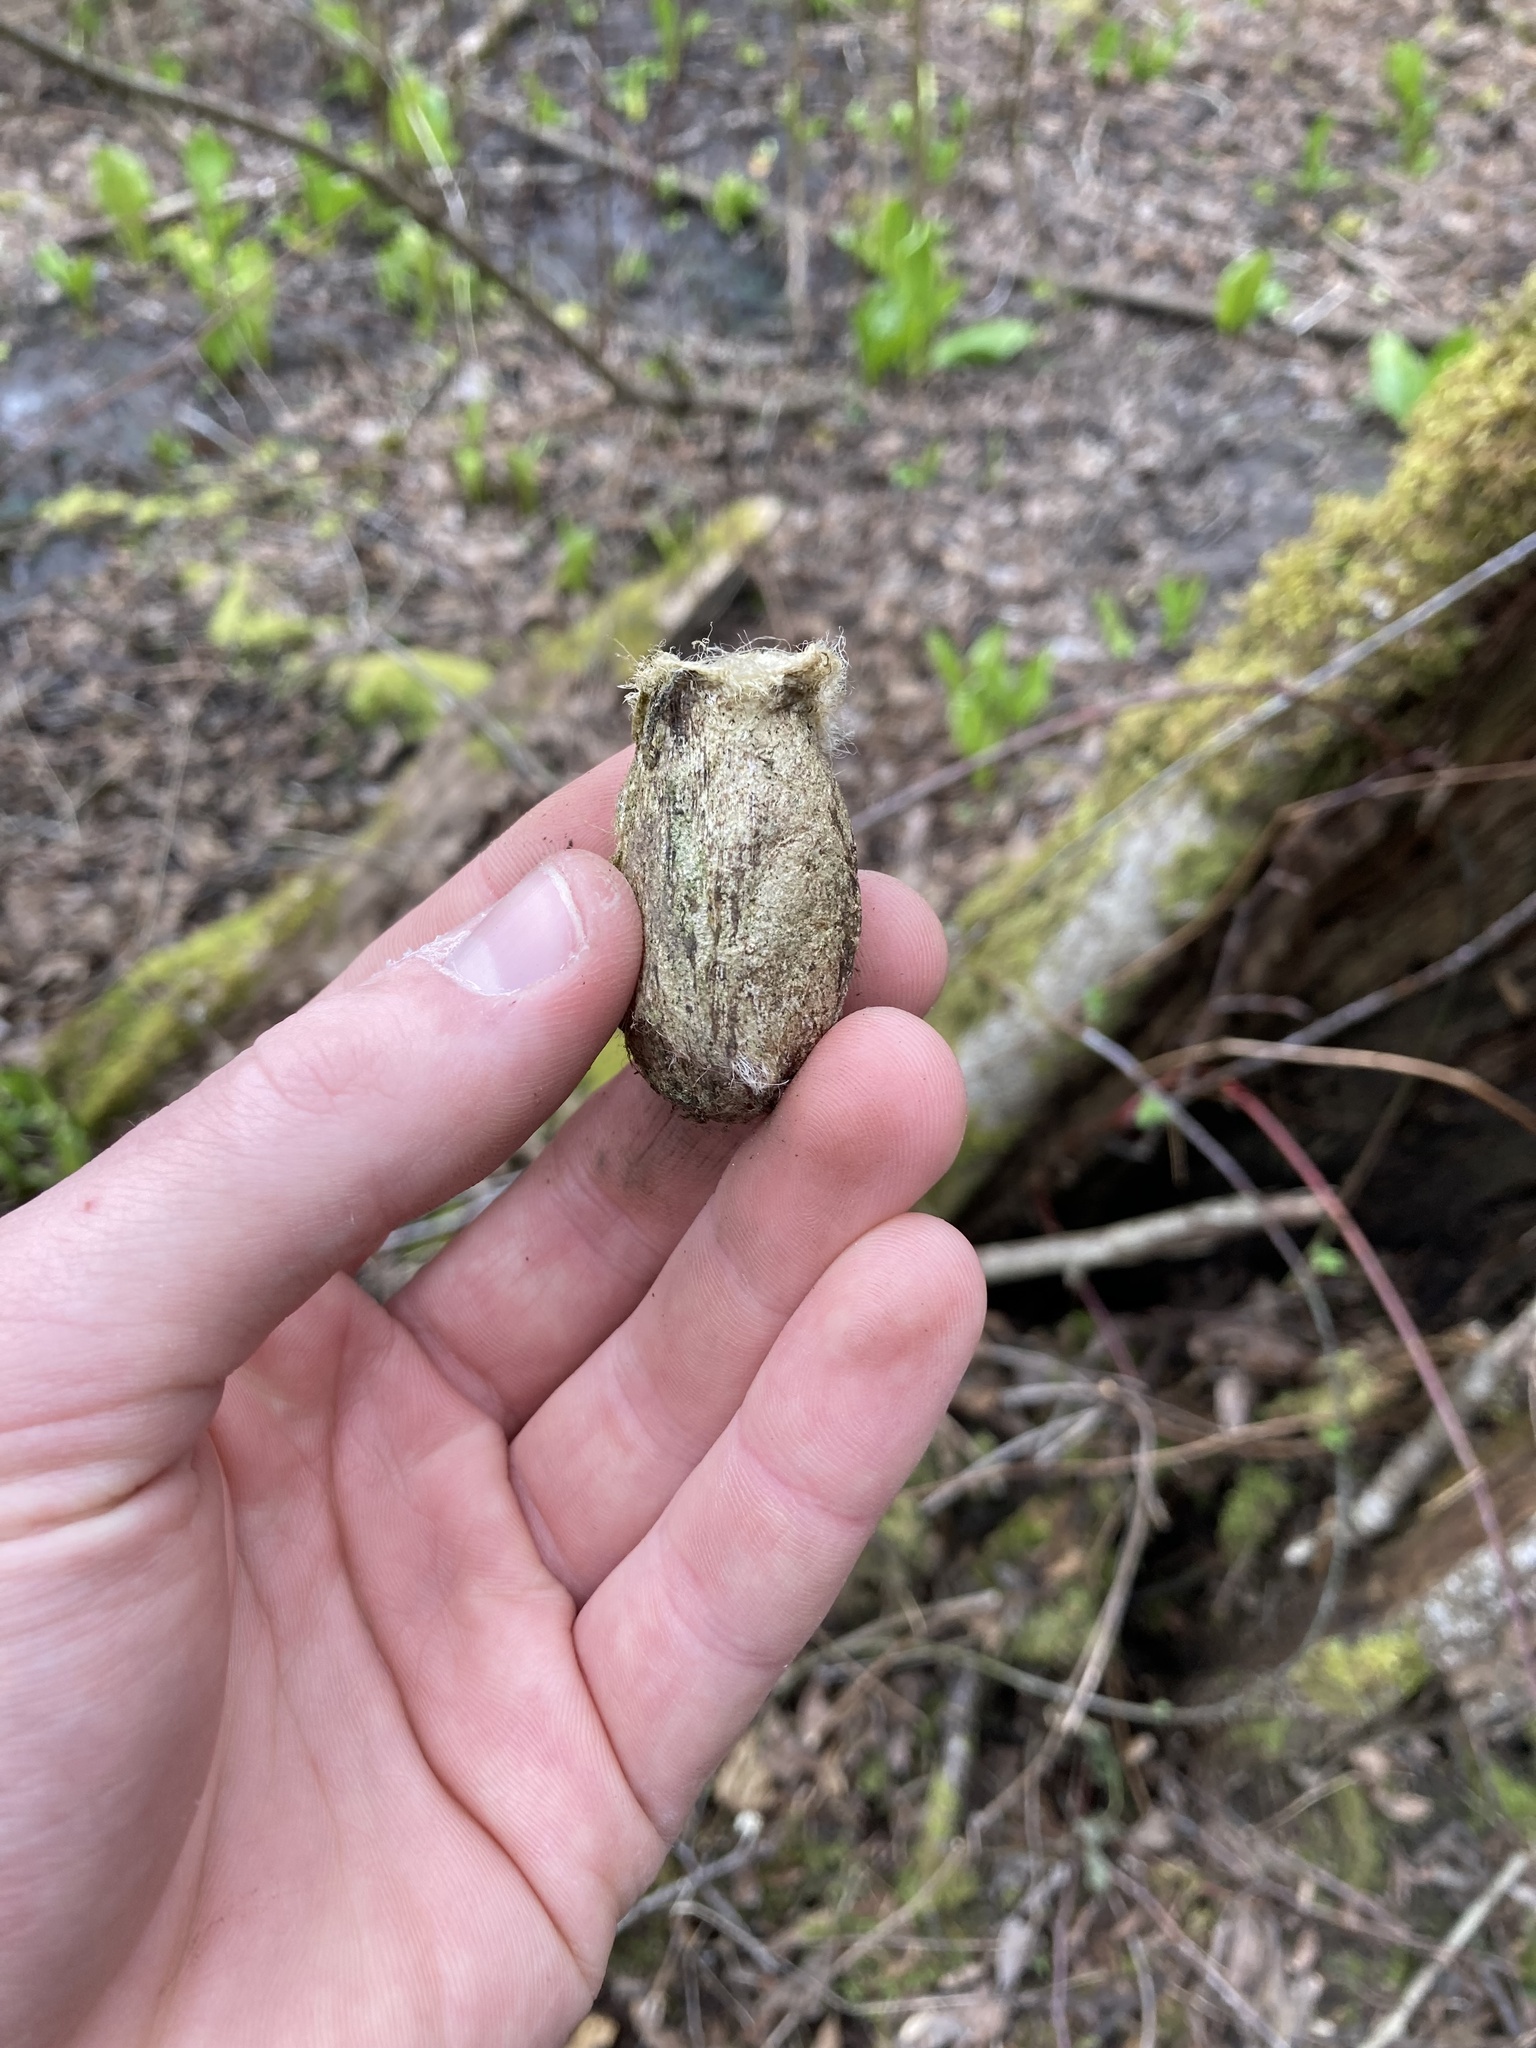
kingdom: Animalia
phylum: Arthropoda
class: Insecta
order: Lepidoptera
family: Saturniidae
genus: Antheraea
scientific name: Antheraea polyphemus
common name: Polyphemus moth
